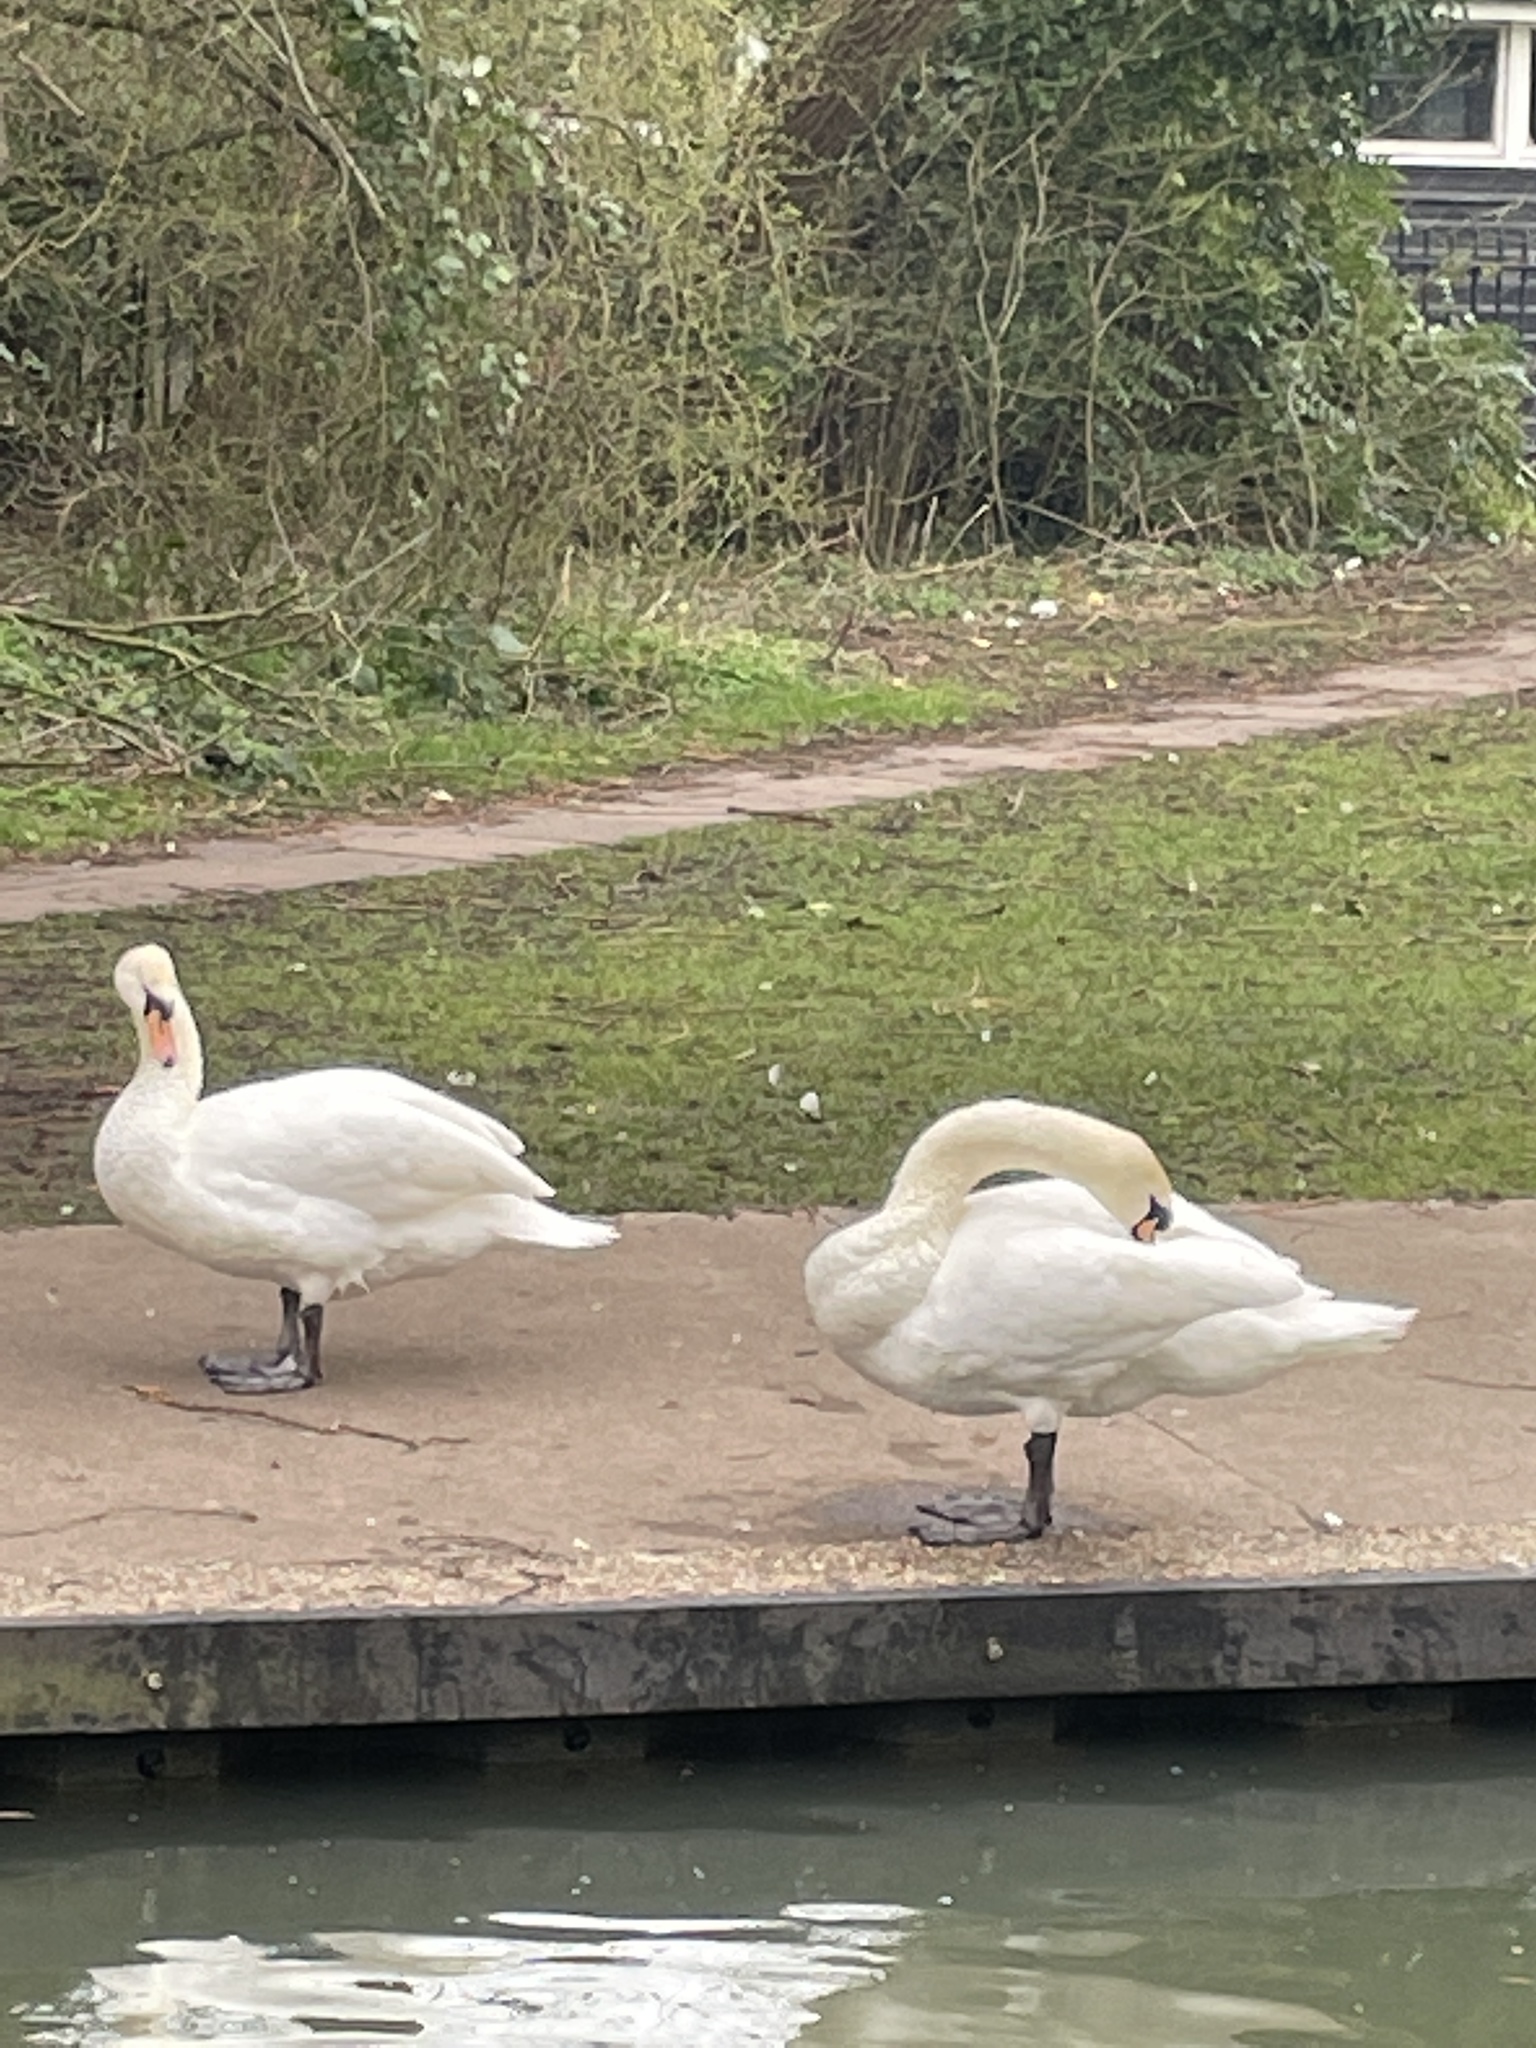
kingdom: Animalia
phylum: Chordata
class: Aves
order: Anseriformes
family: Anatidae
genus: Cygnus
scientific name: Cygnus olor
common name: Mute swan
